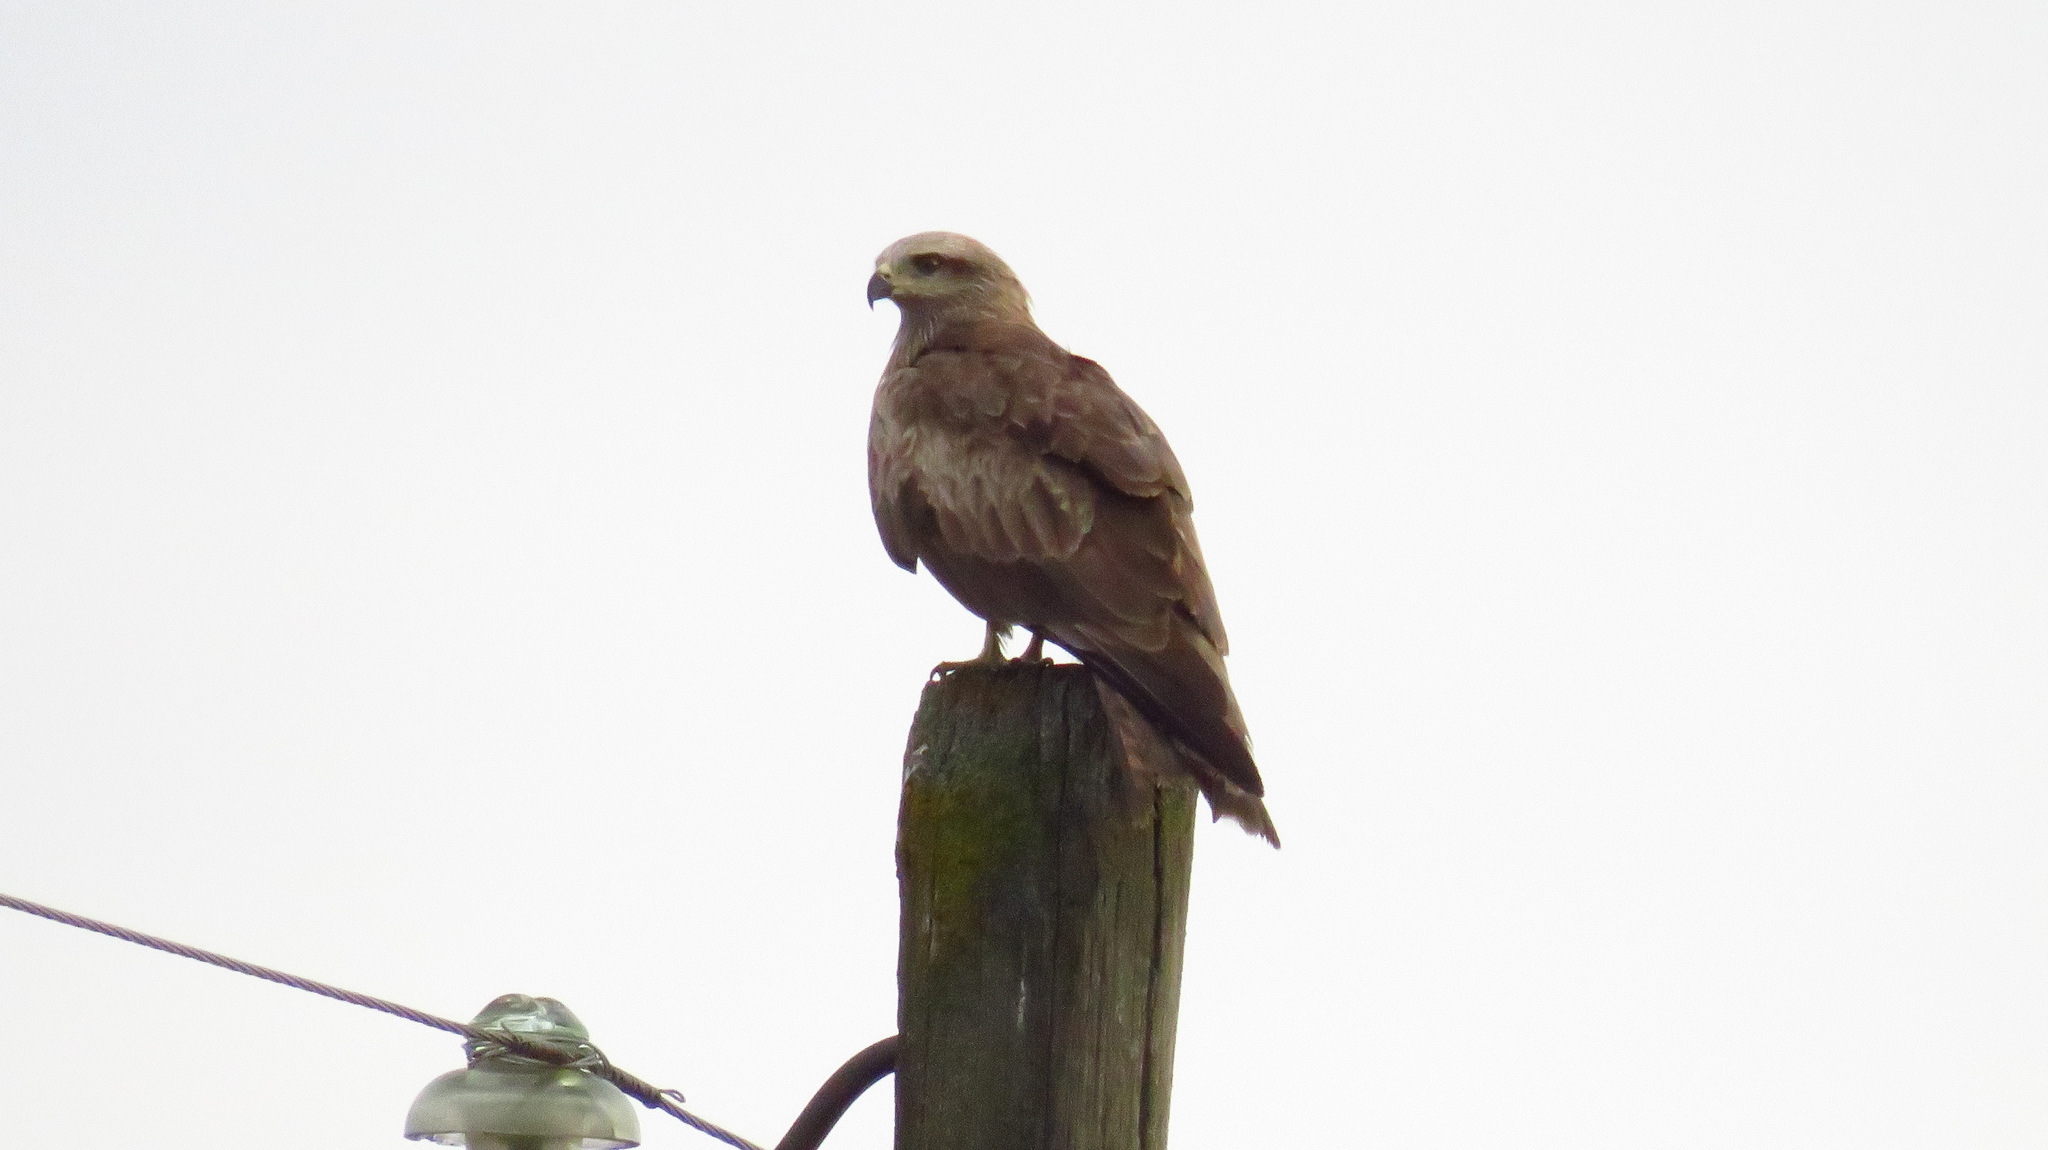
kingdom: Animalia
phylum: Chordata
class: Aves
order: Accipitriformes
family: Accipitridae
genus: Milvus
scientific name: Milvus migrans
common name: Black kite
